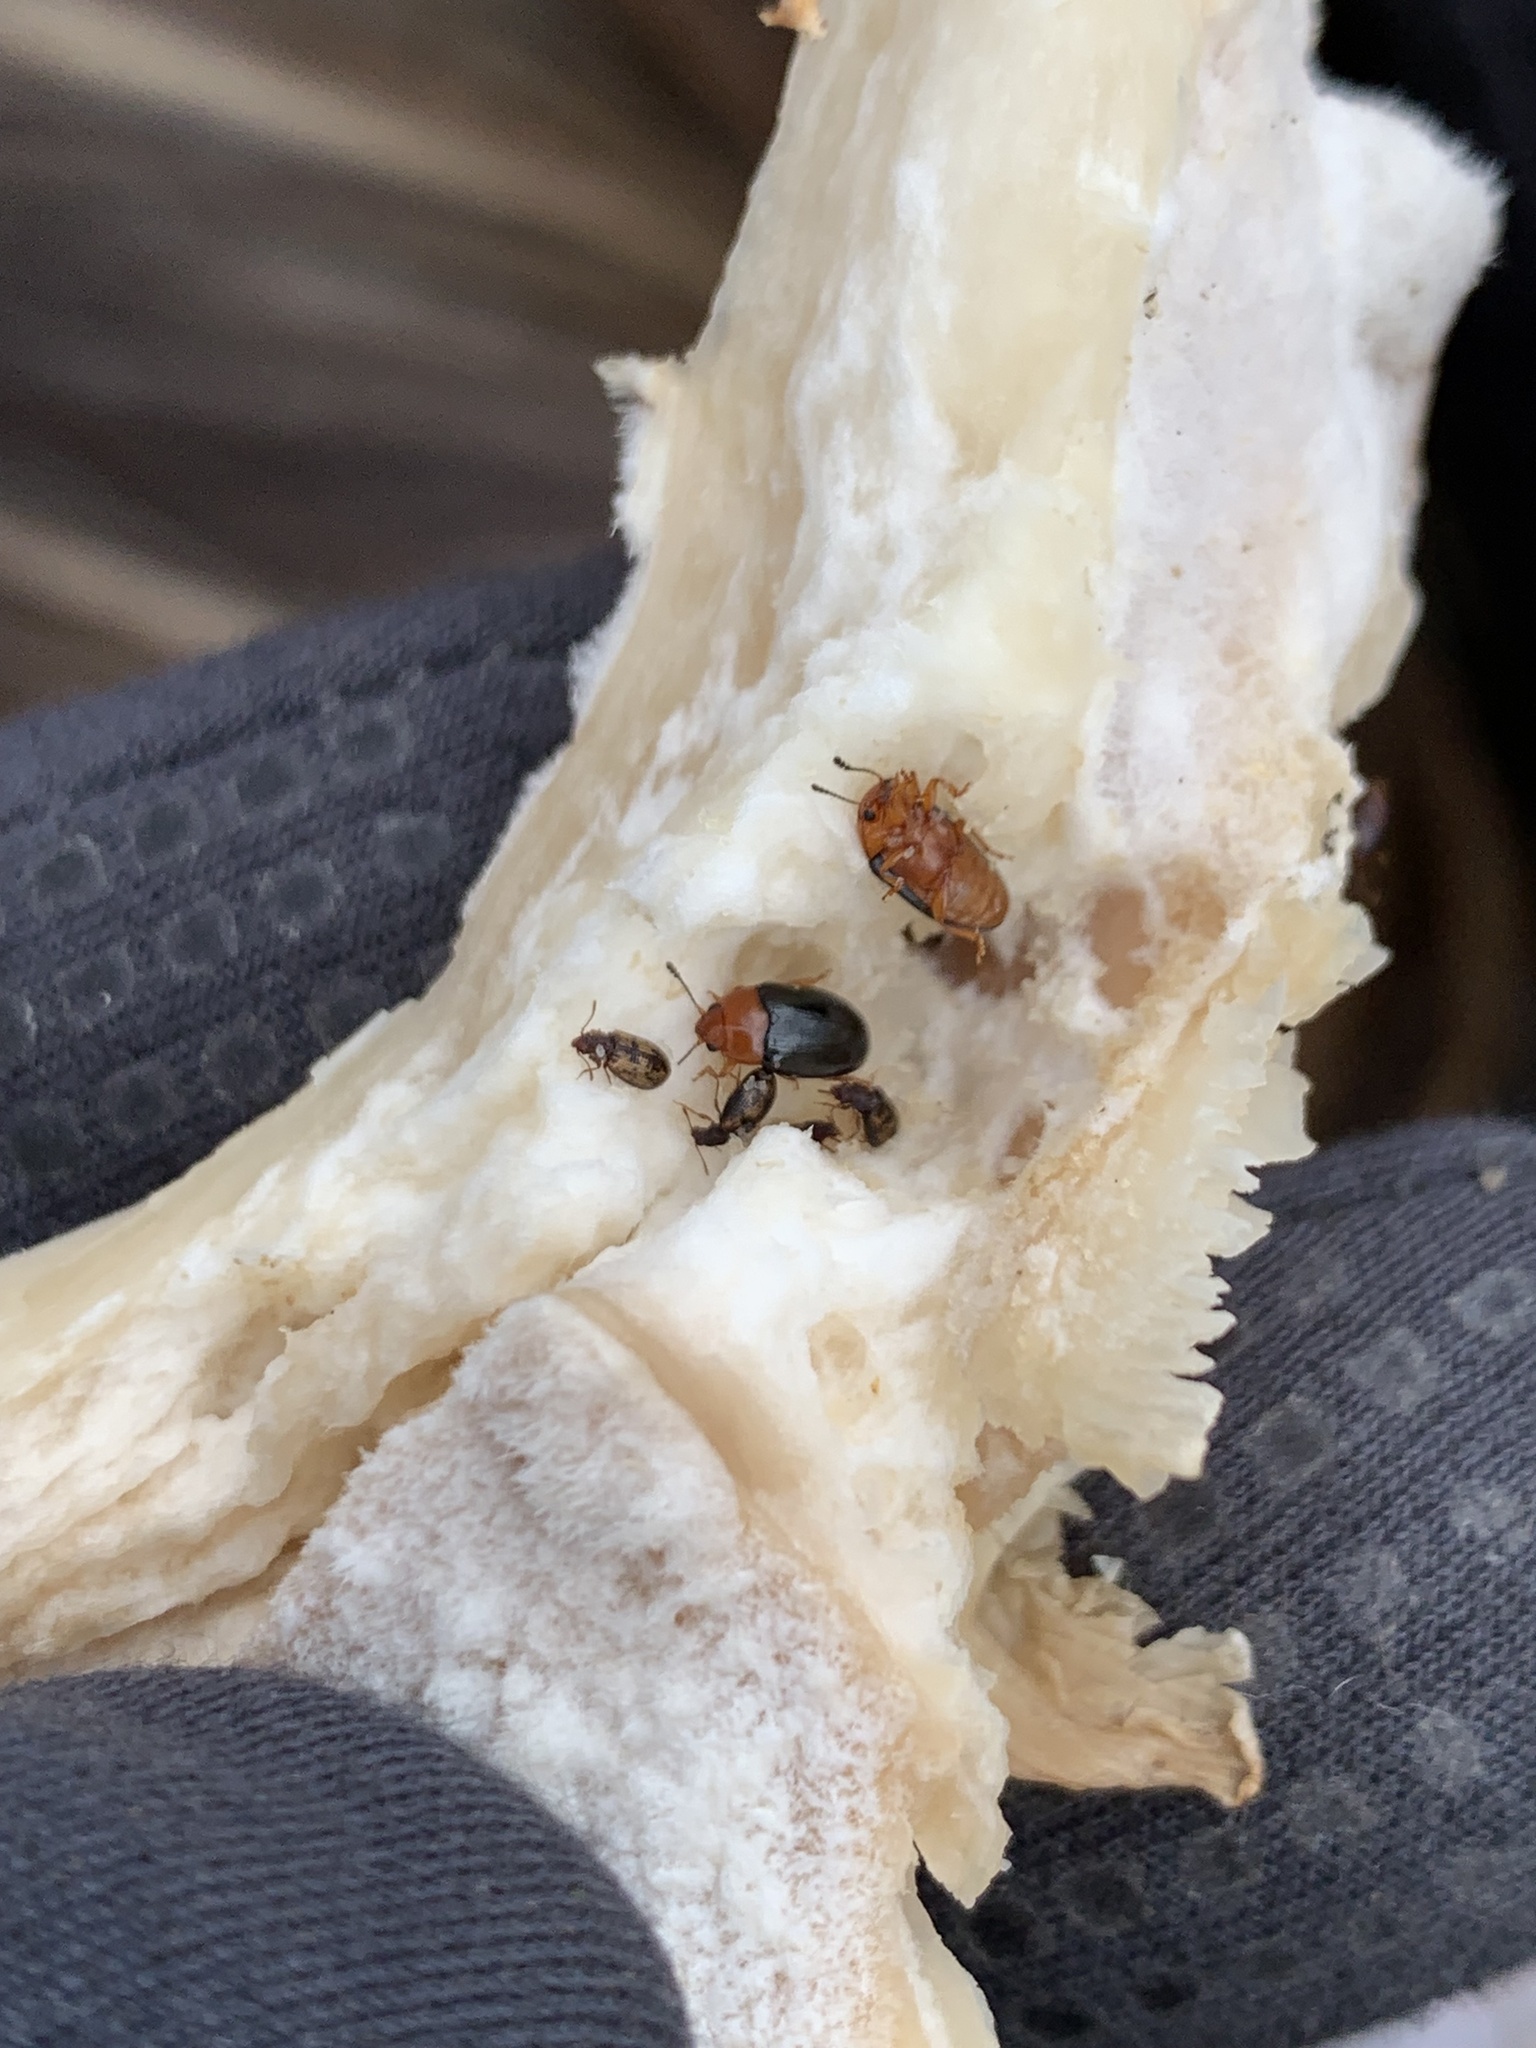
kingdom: Animalia
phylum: Arthropoda
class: Insecta
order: Coleoptera
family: Derodontidae
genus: Derodontus
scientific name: Derodontus maculatus
